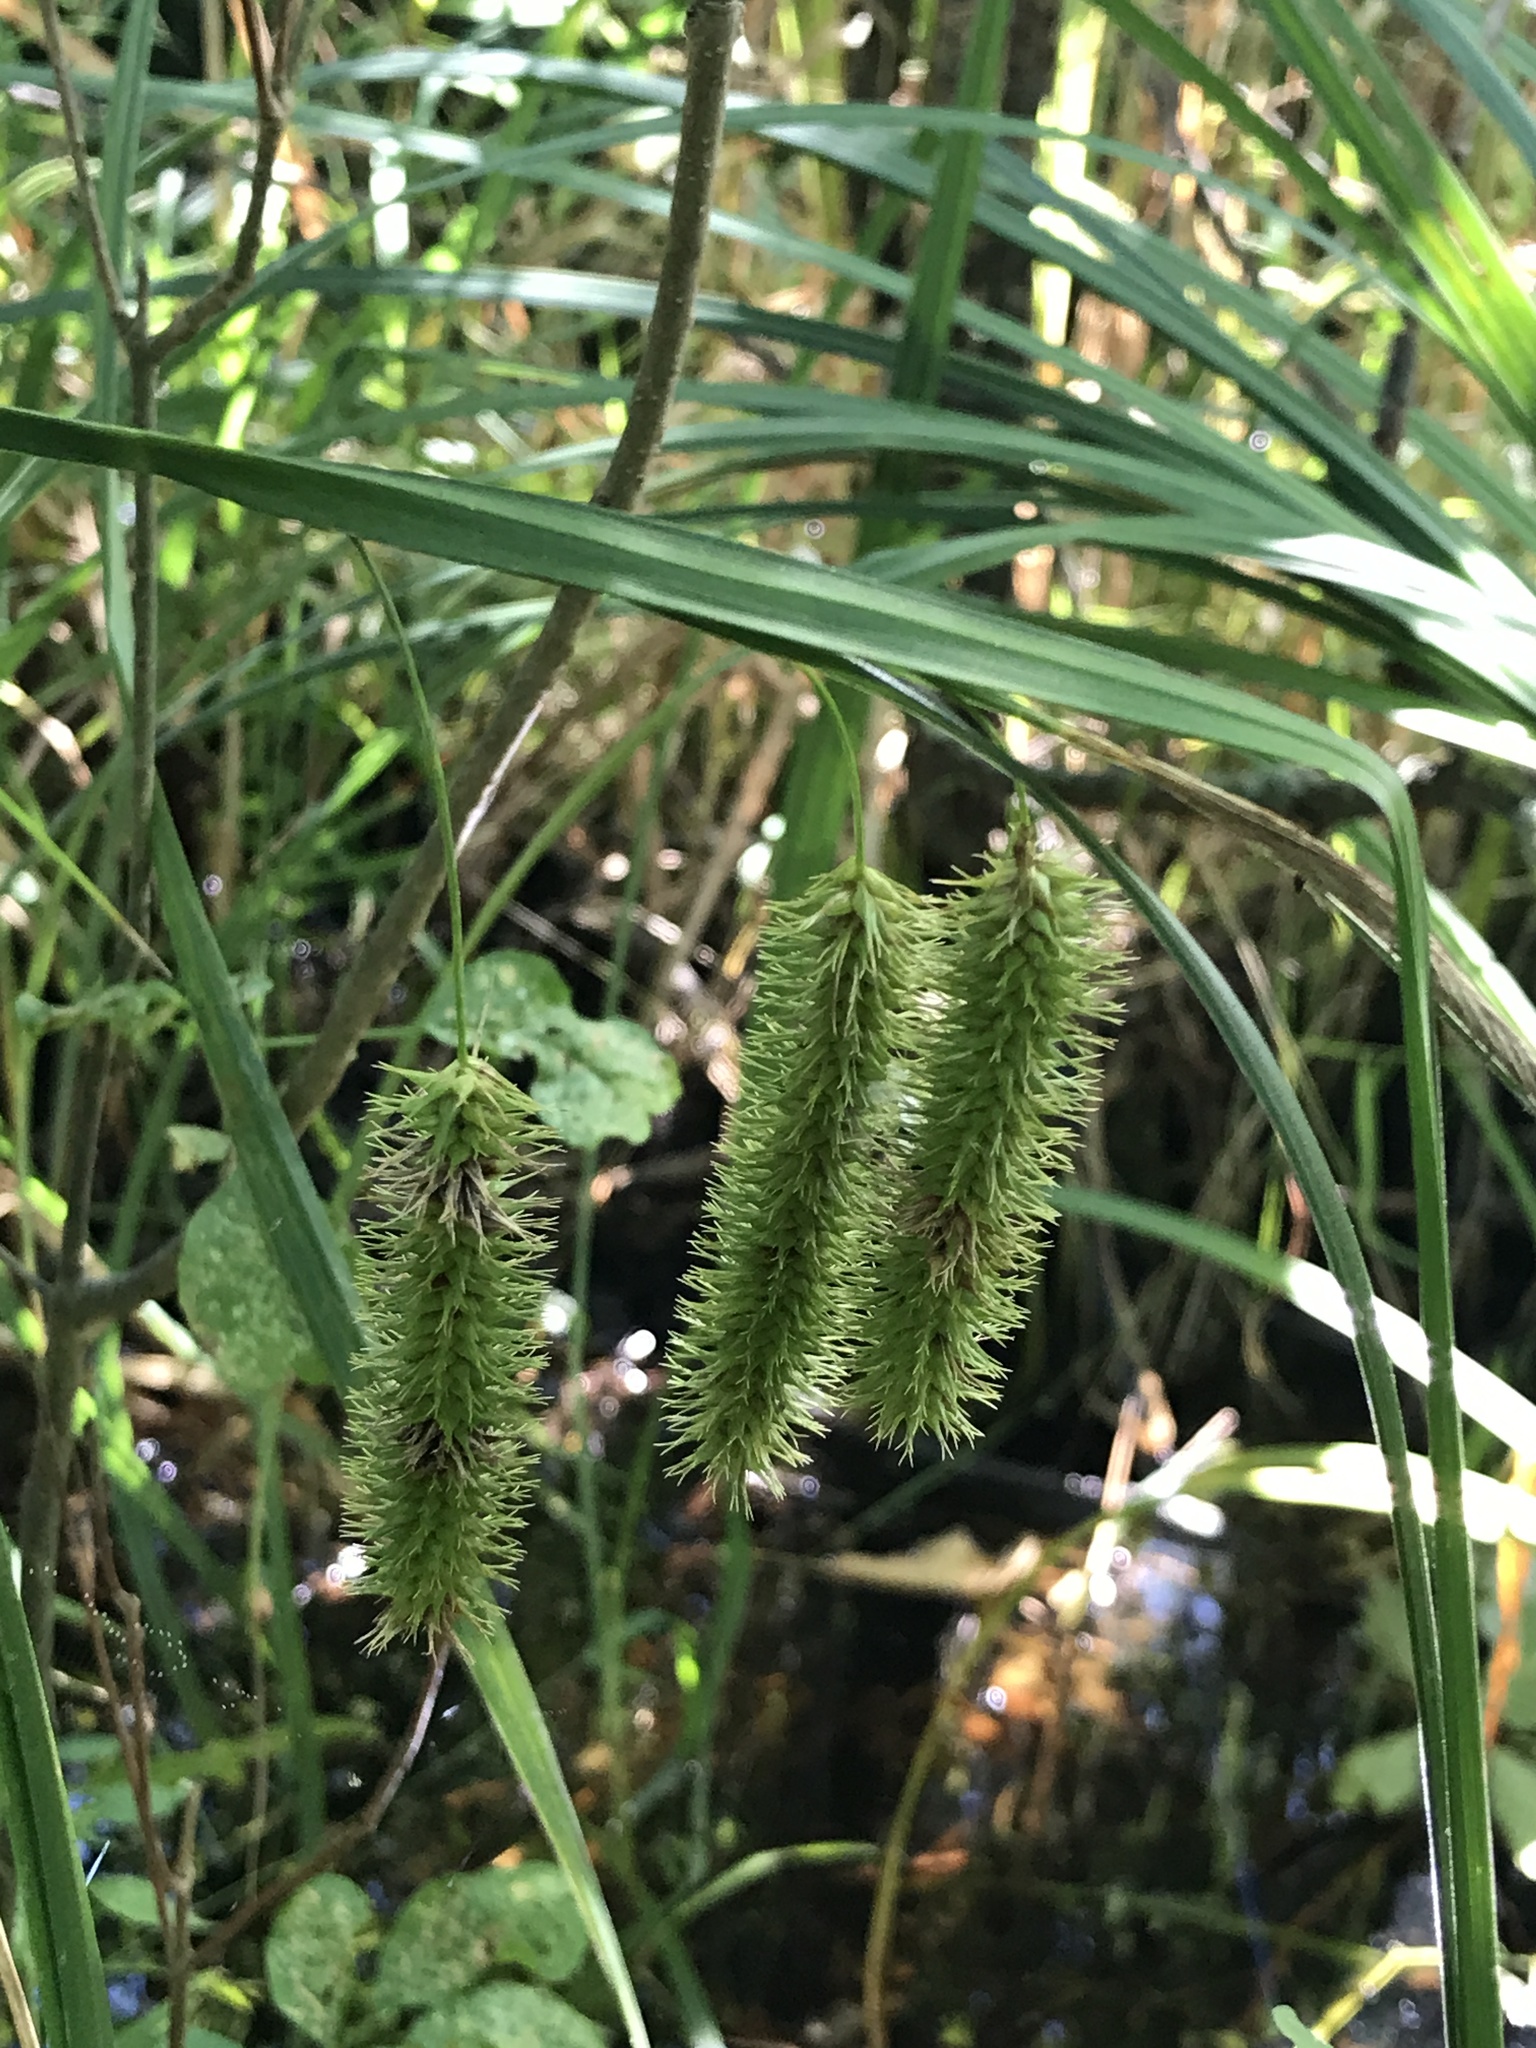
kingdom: Plantae
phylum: Tracheophyta
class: Liliopsida
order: Poales
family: Cyperaceae
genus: Carex
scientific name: Carex comosa
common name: Bristly sedge
